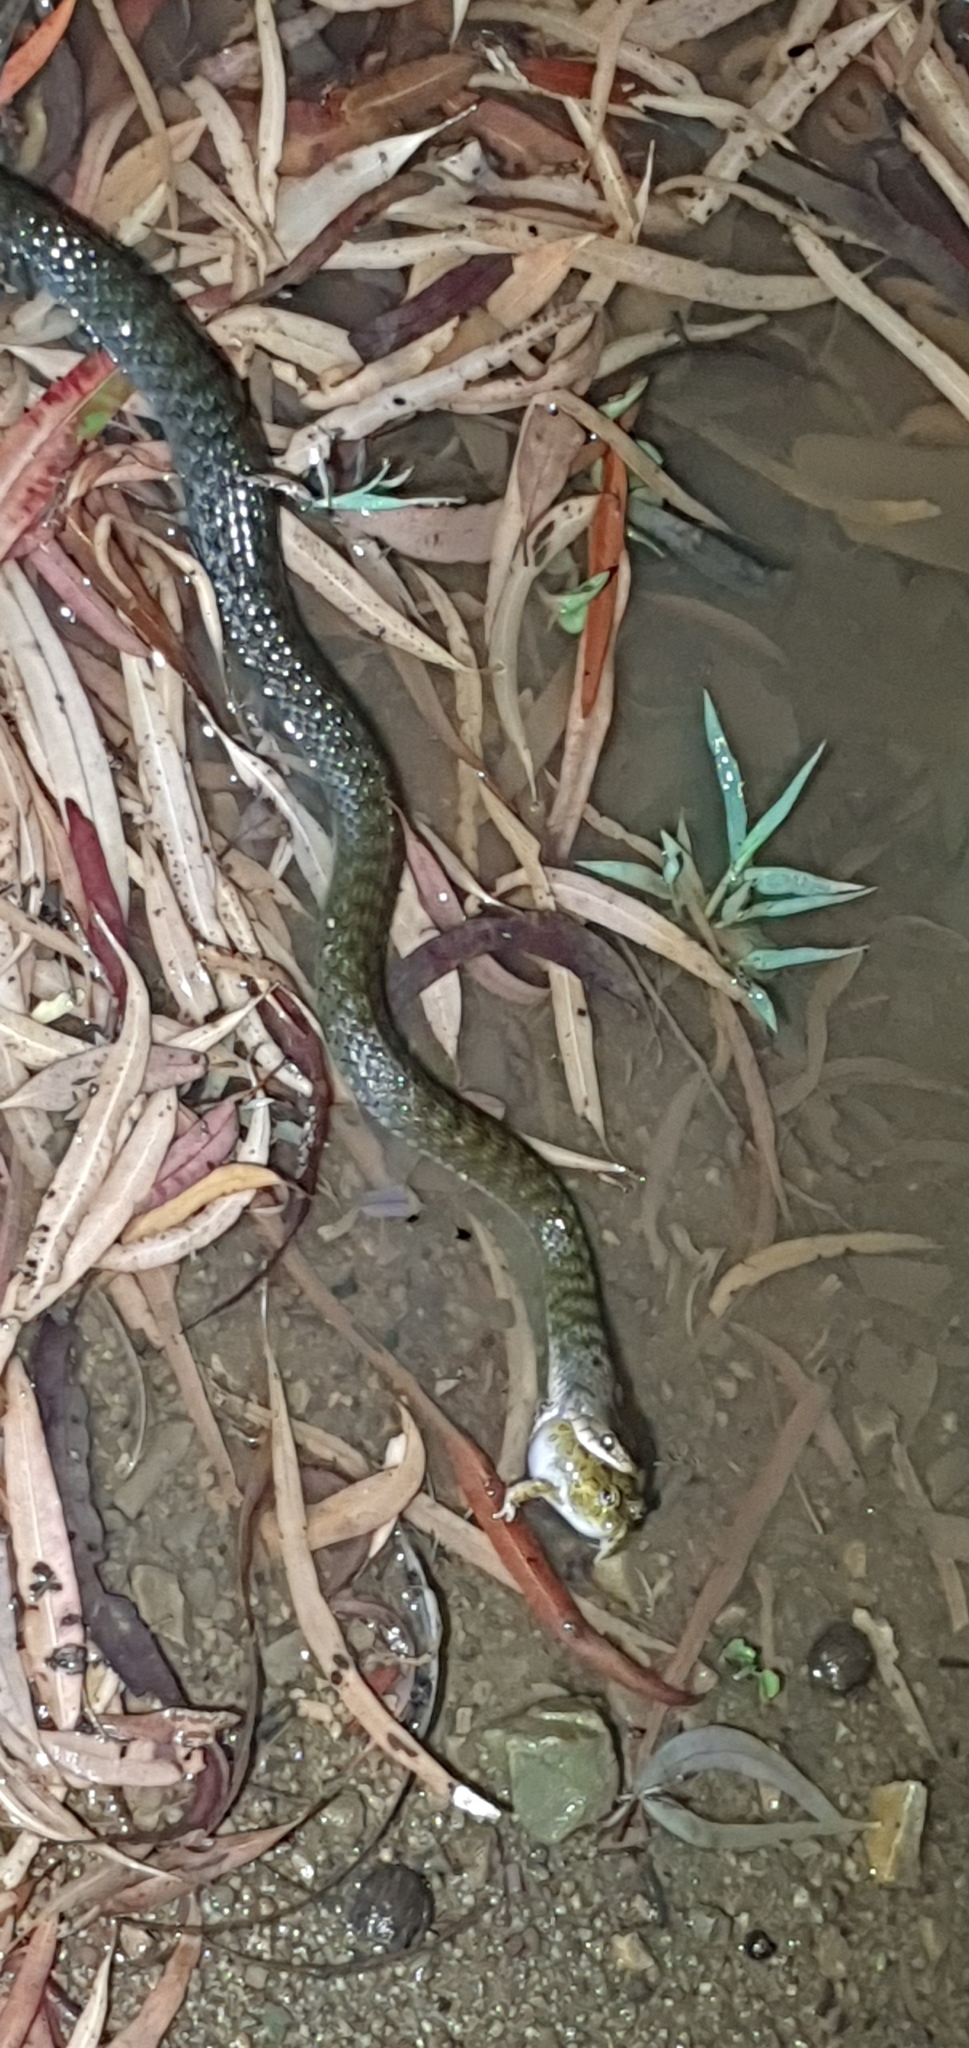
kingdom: Animalia
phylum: Chordata
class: Squamata
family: Colubridae
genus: Tropidonophis
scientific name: Tropidonophis mairii
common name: Common keelback
